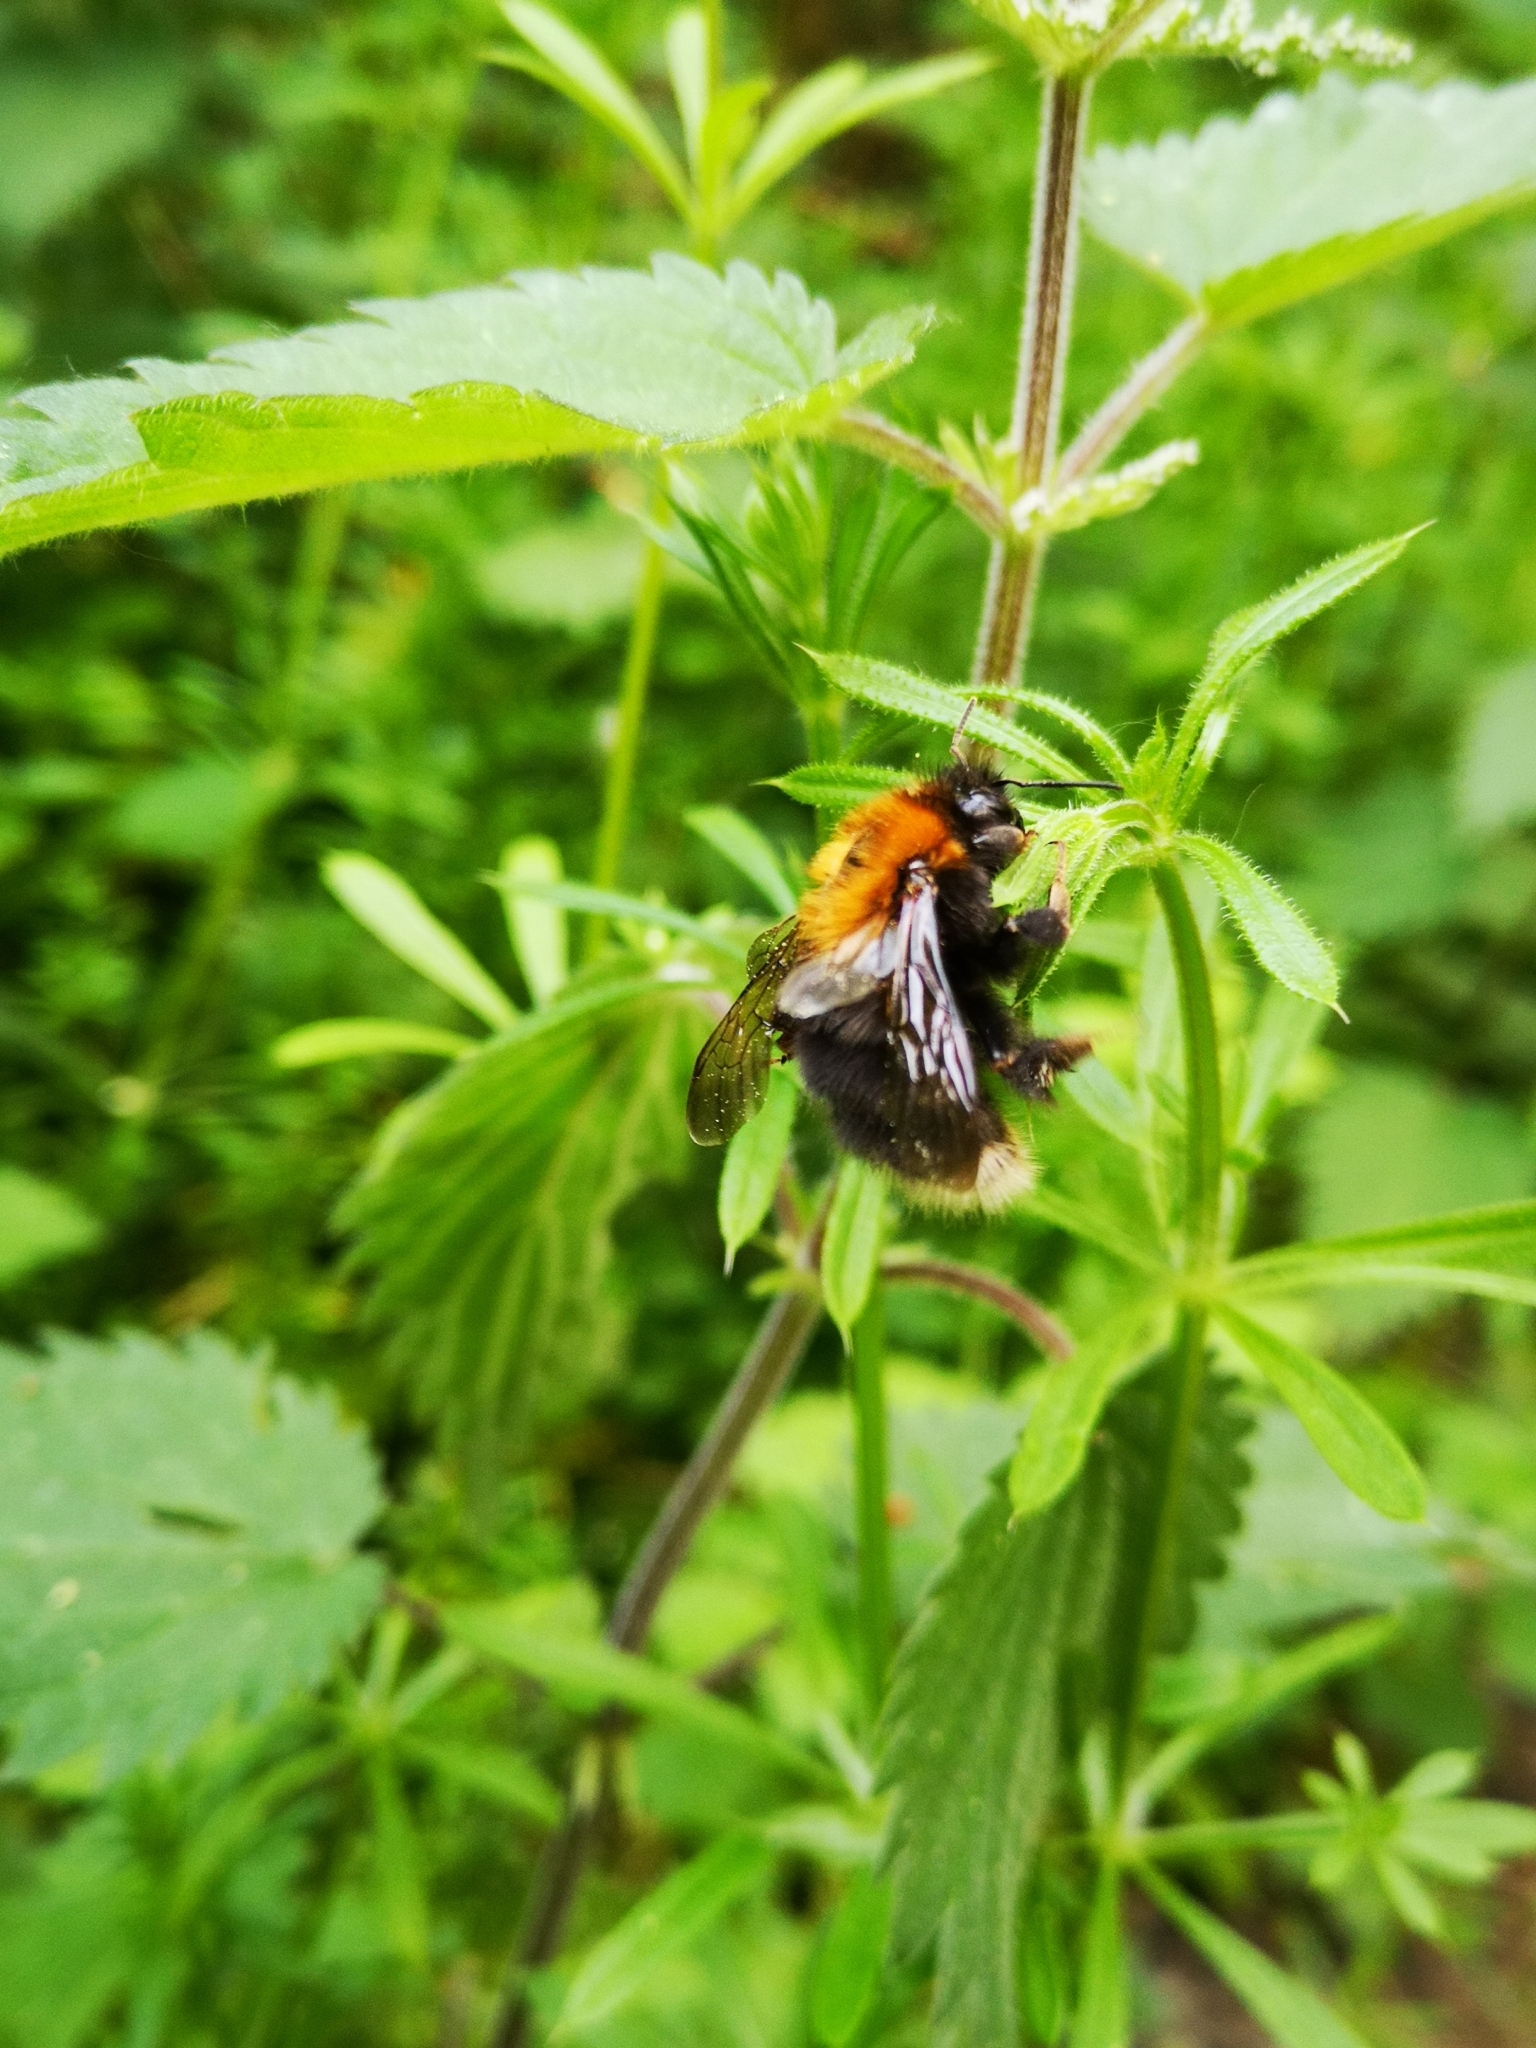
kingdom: Animalia
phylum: Arthropoda
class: Insecta
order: Hymenoptera
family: Apidae
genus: Bombus
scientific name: Bombus hypnorum
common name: New garden bumblebee
